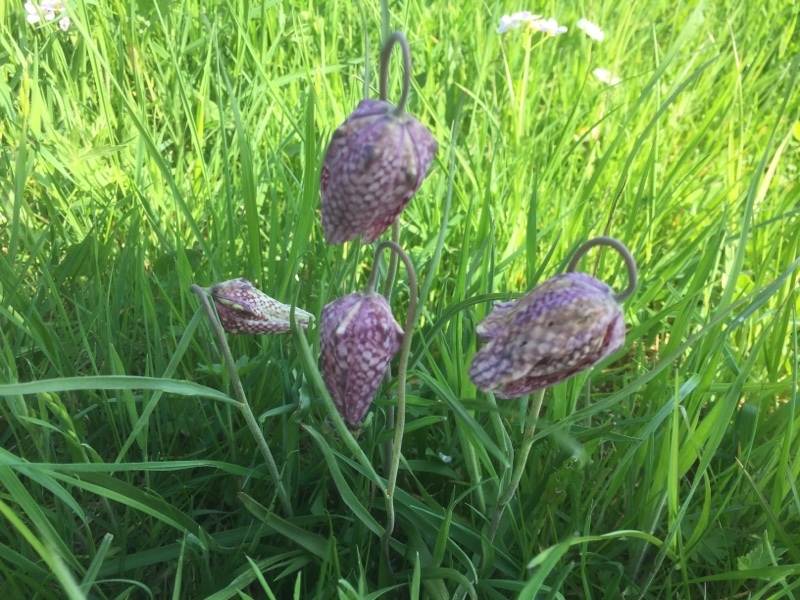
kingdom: Plantae
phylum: Tracheophyta
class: Liliopsida
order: Liliales
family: Liliaceae
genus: Fritillaria
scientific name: Fritillaria meleagris
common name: Fritillary
